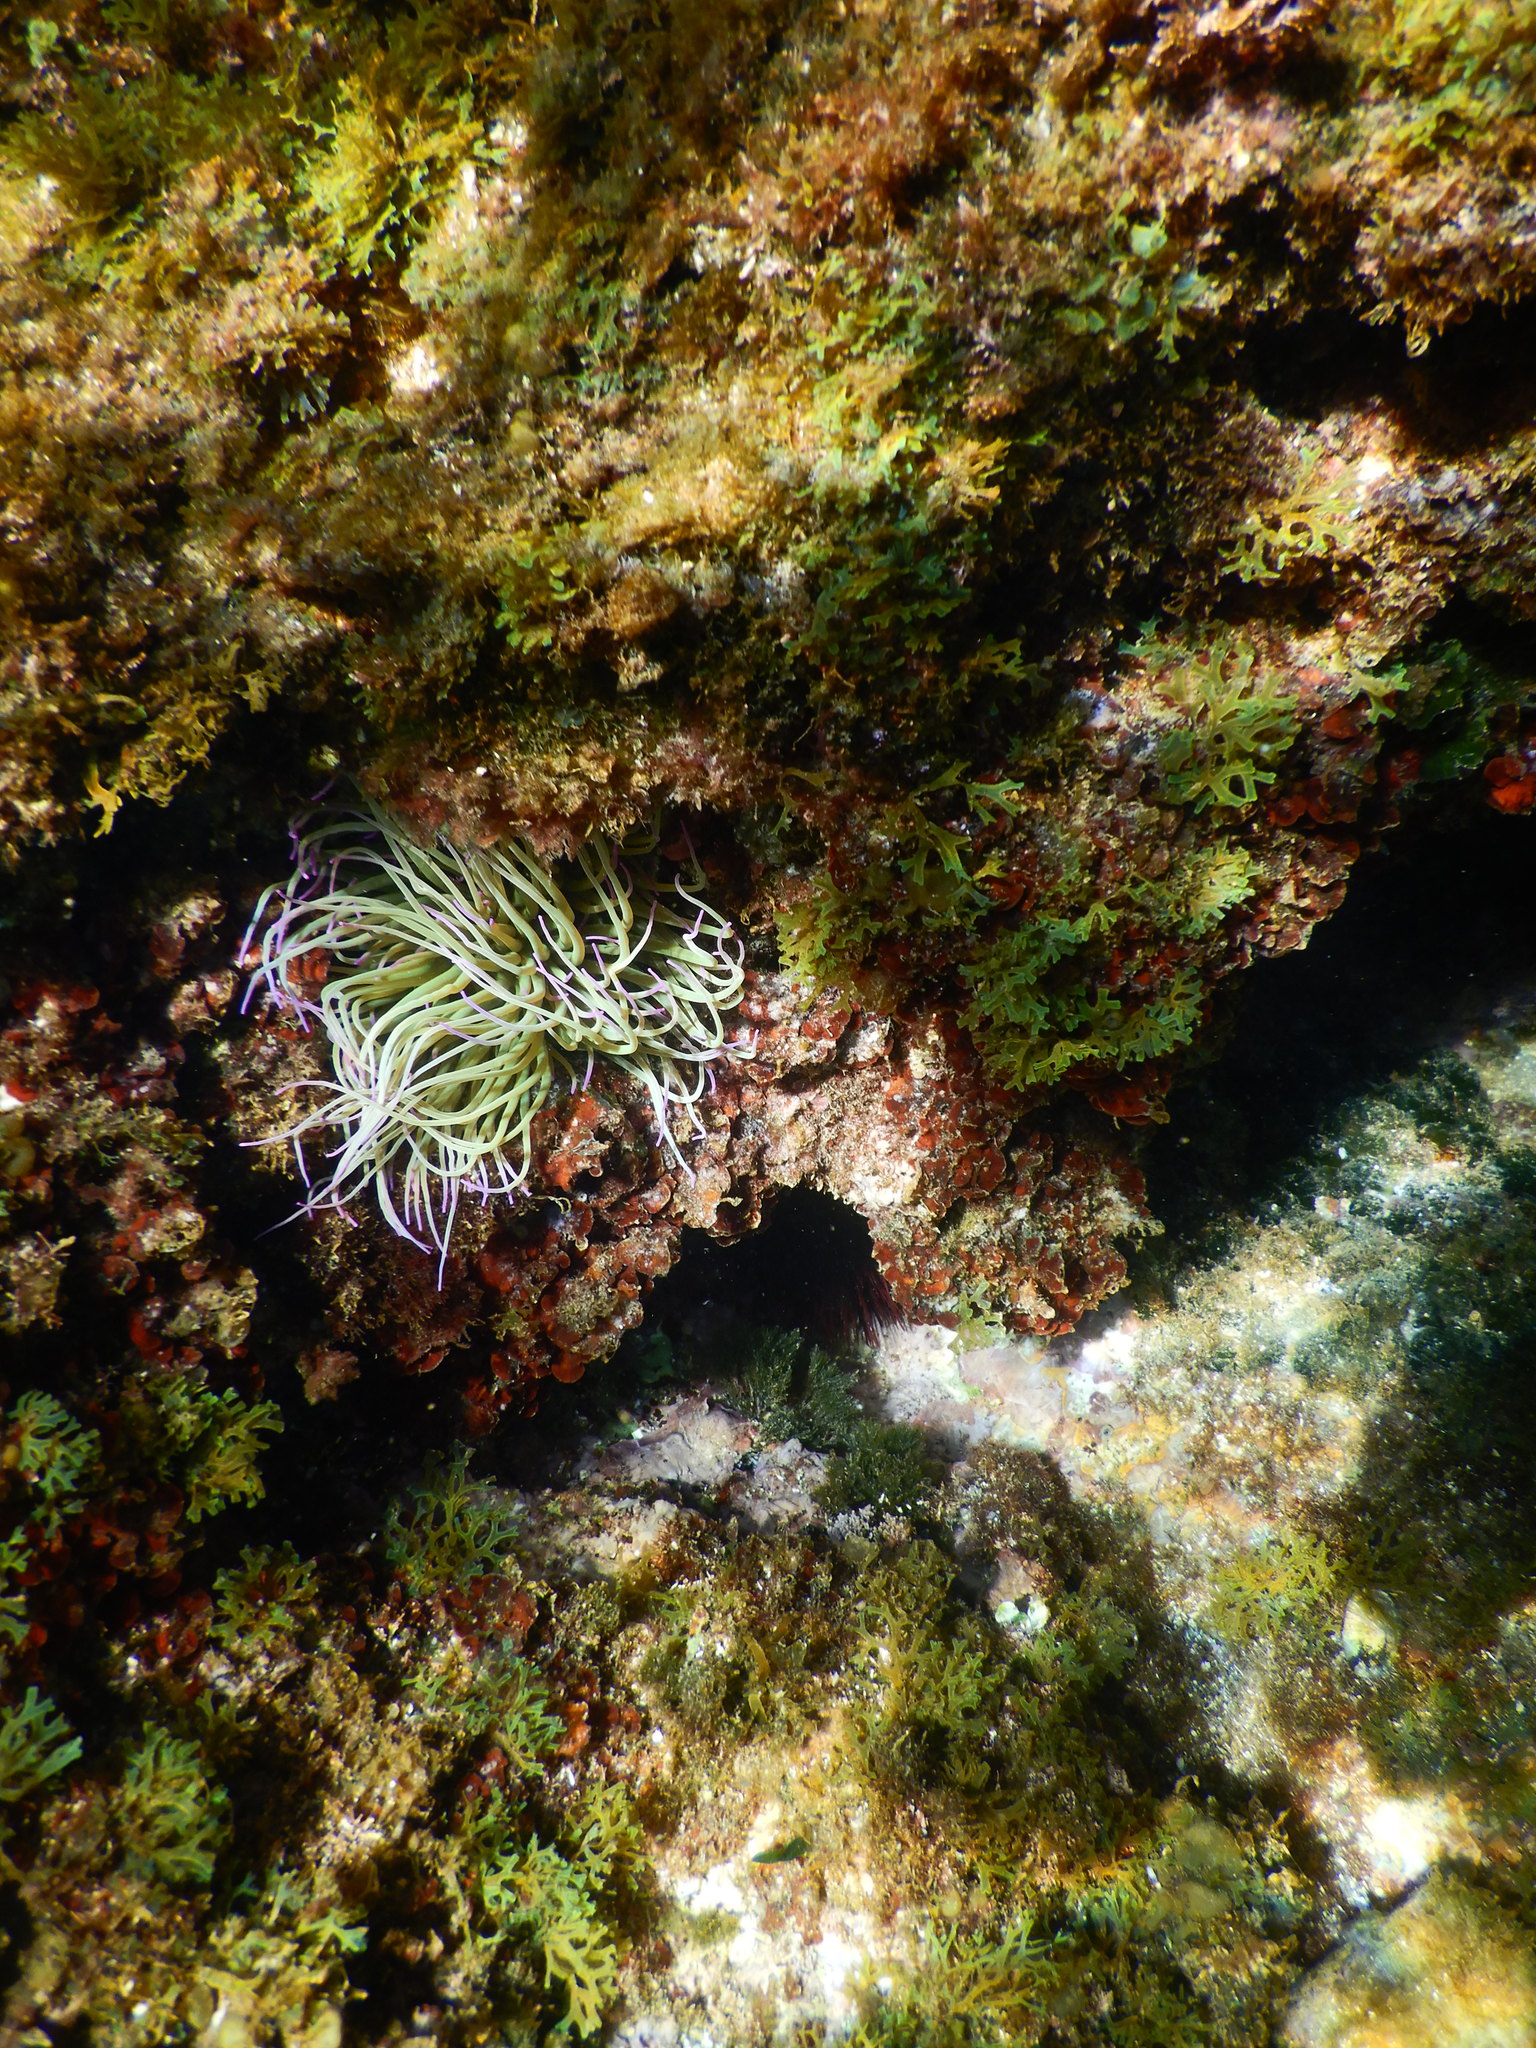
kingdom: Animalia
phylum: Cnidaria
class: Anthozoa
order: Actiniaria
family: Actiniidae
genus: Anemonia
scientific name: Anemonia viridis
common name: Snakelocks anemone
